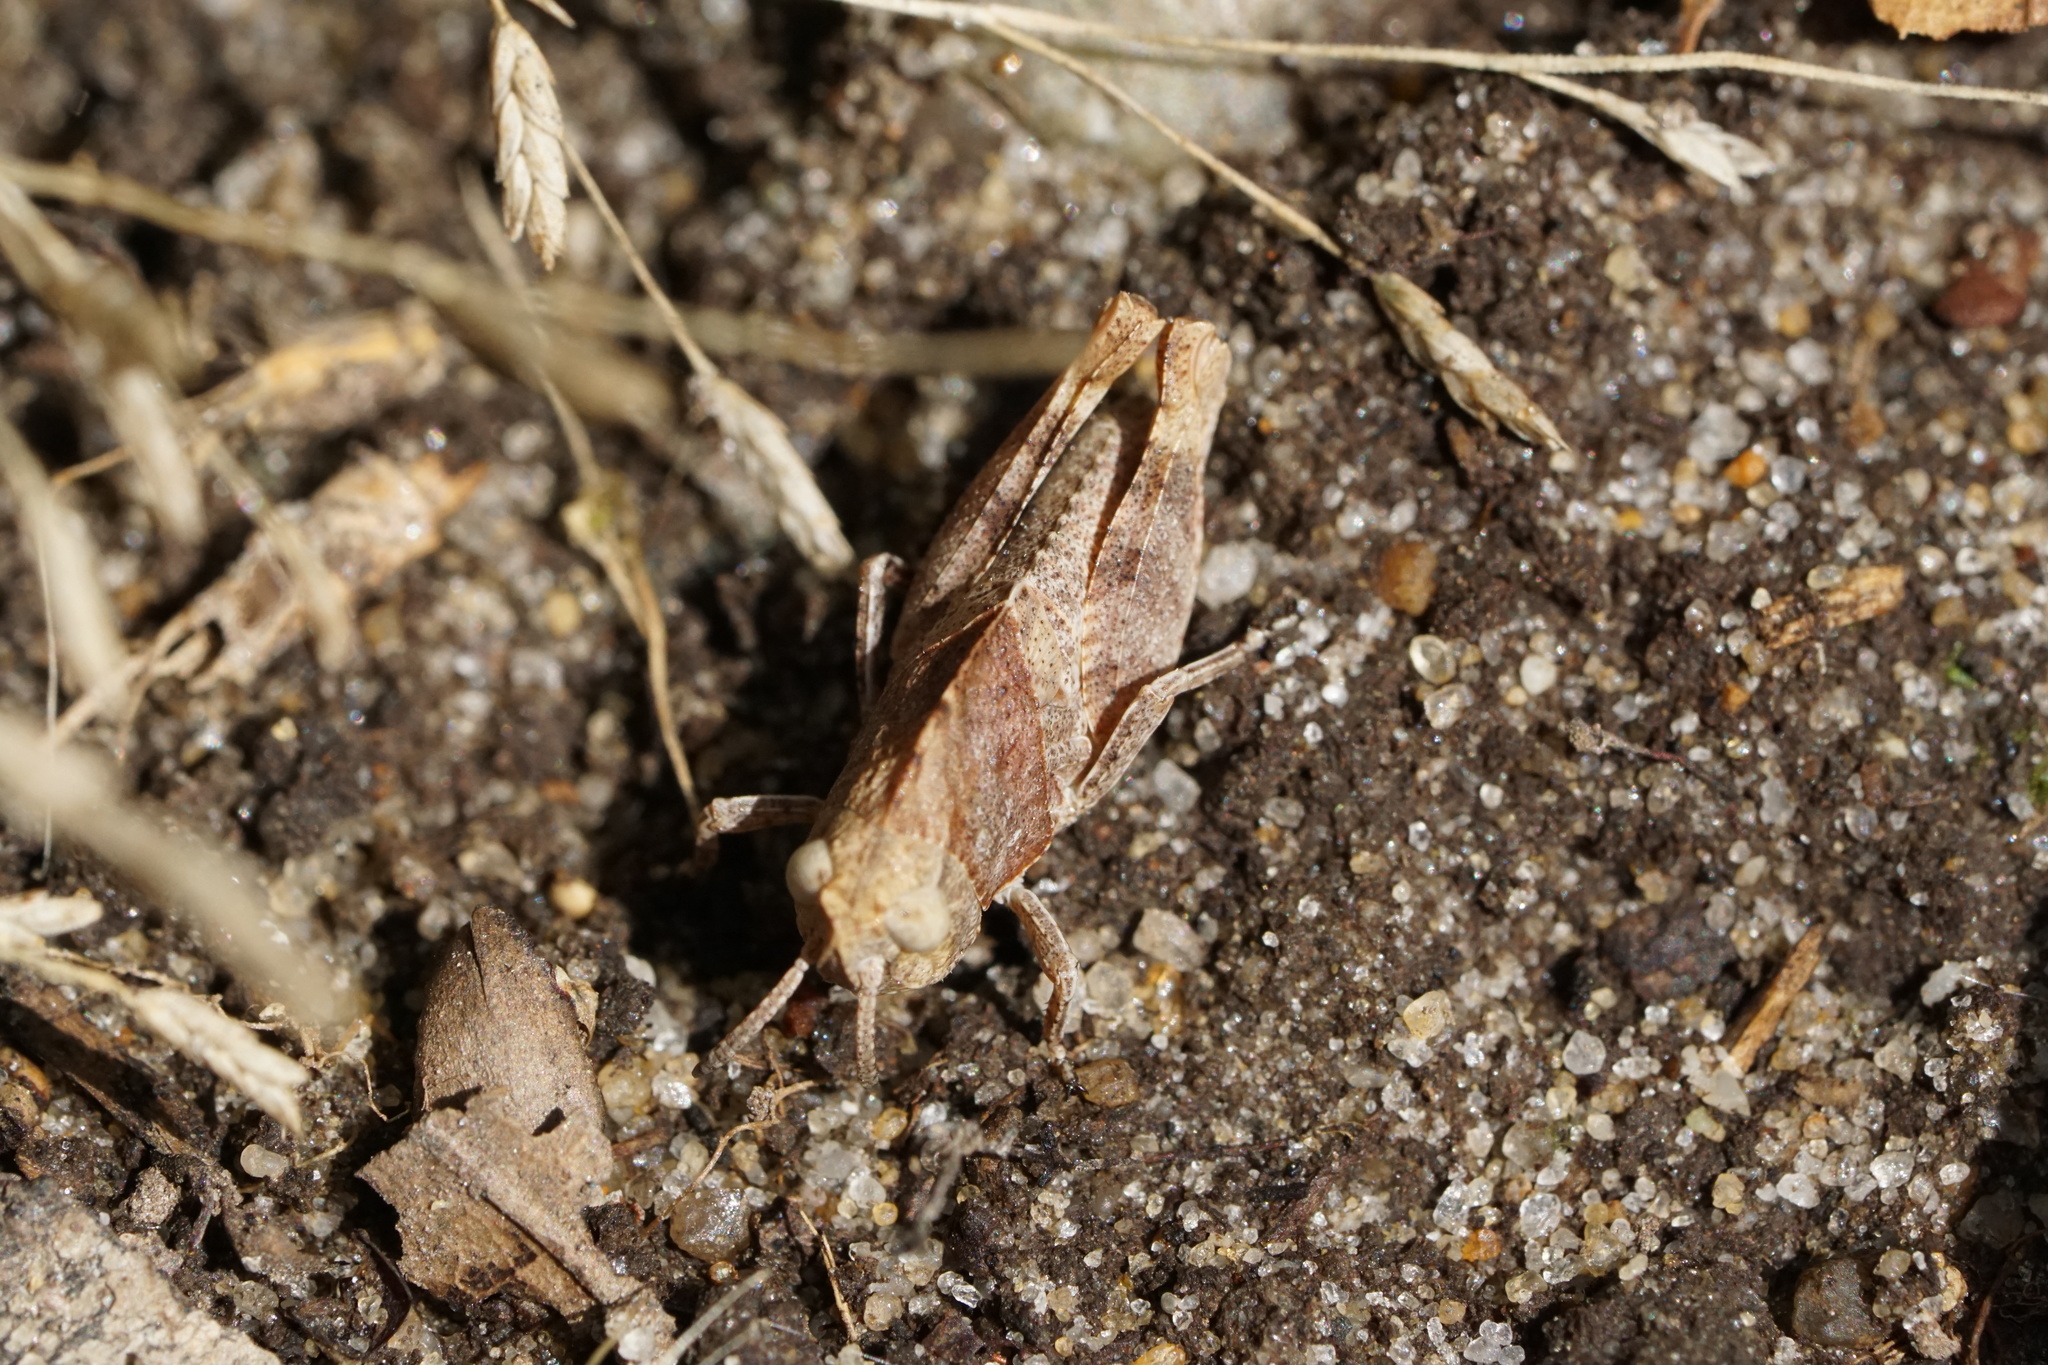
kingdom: Animalia
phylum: Arthropoda
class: Insecta
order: Orthoptera
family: Acrididae
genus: Arphia
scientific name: Arphia sulphurea
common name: Spring yellow-winged locust
